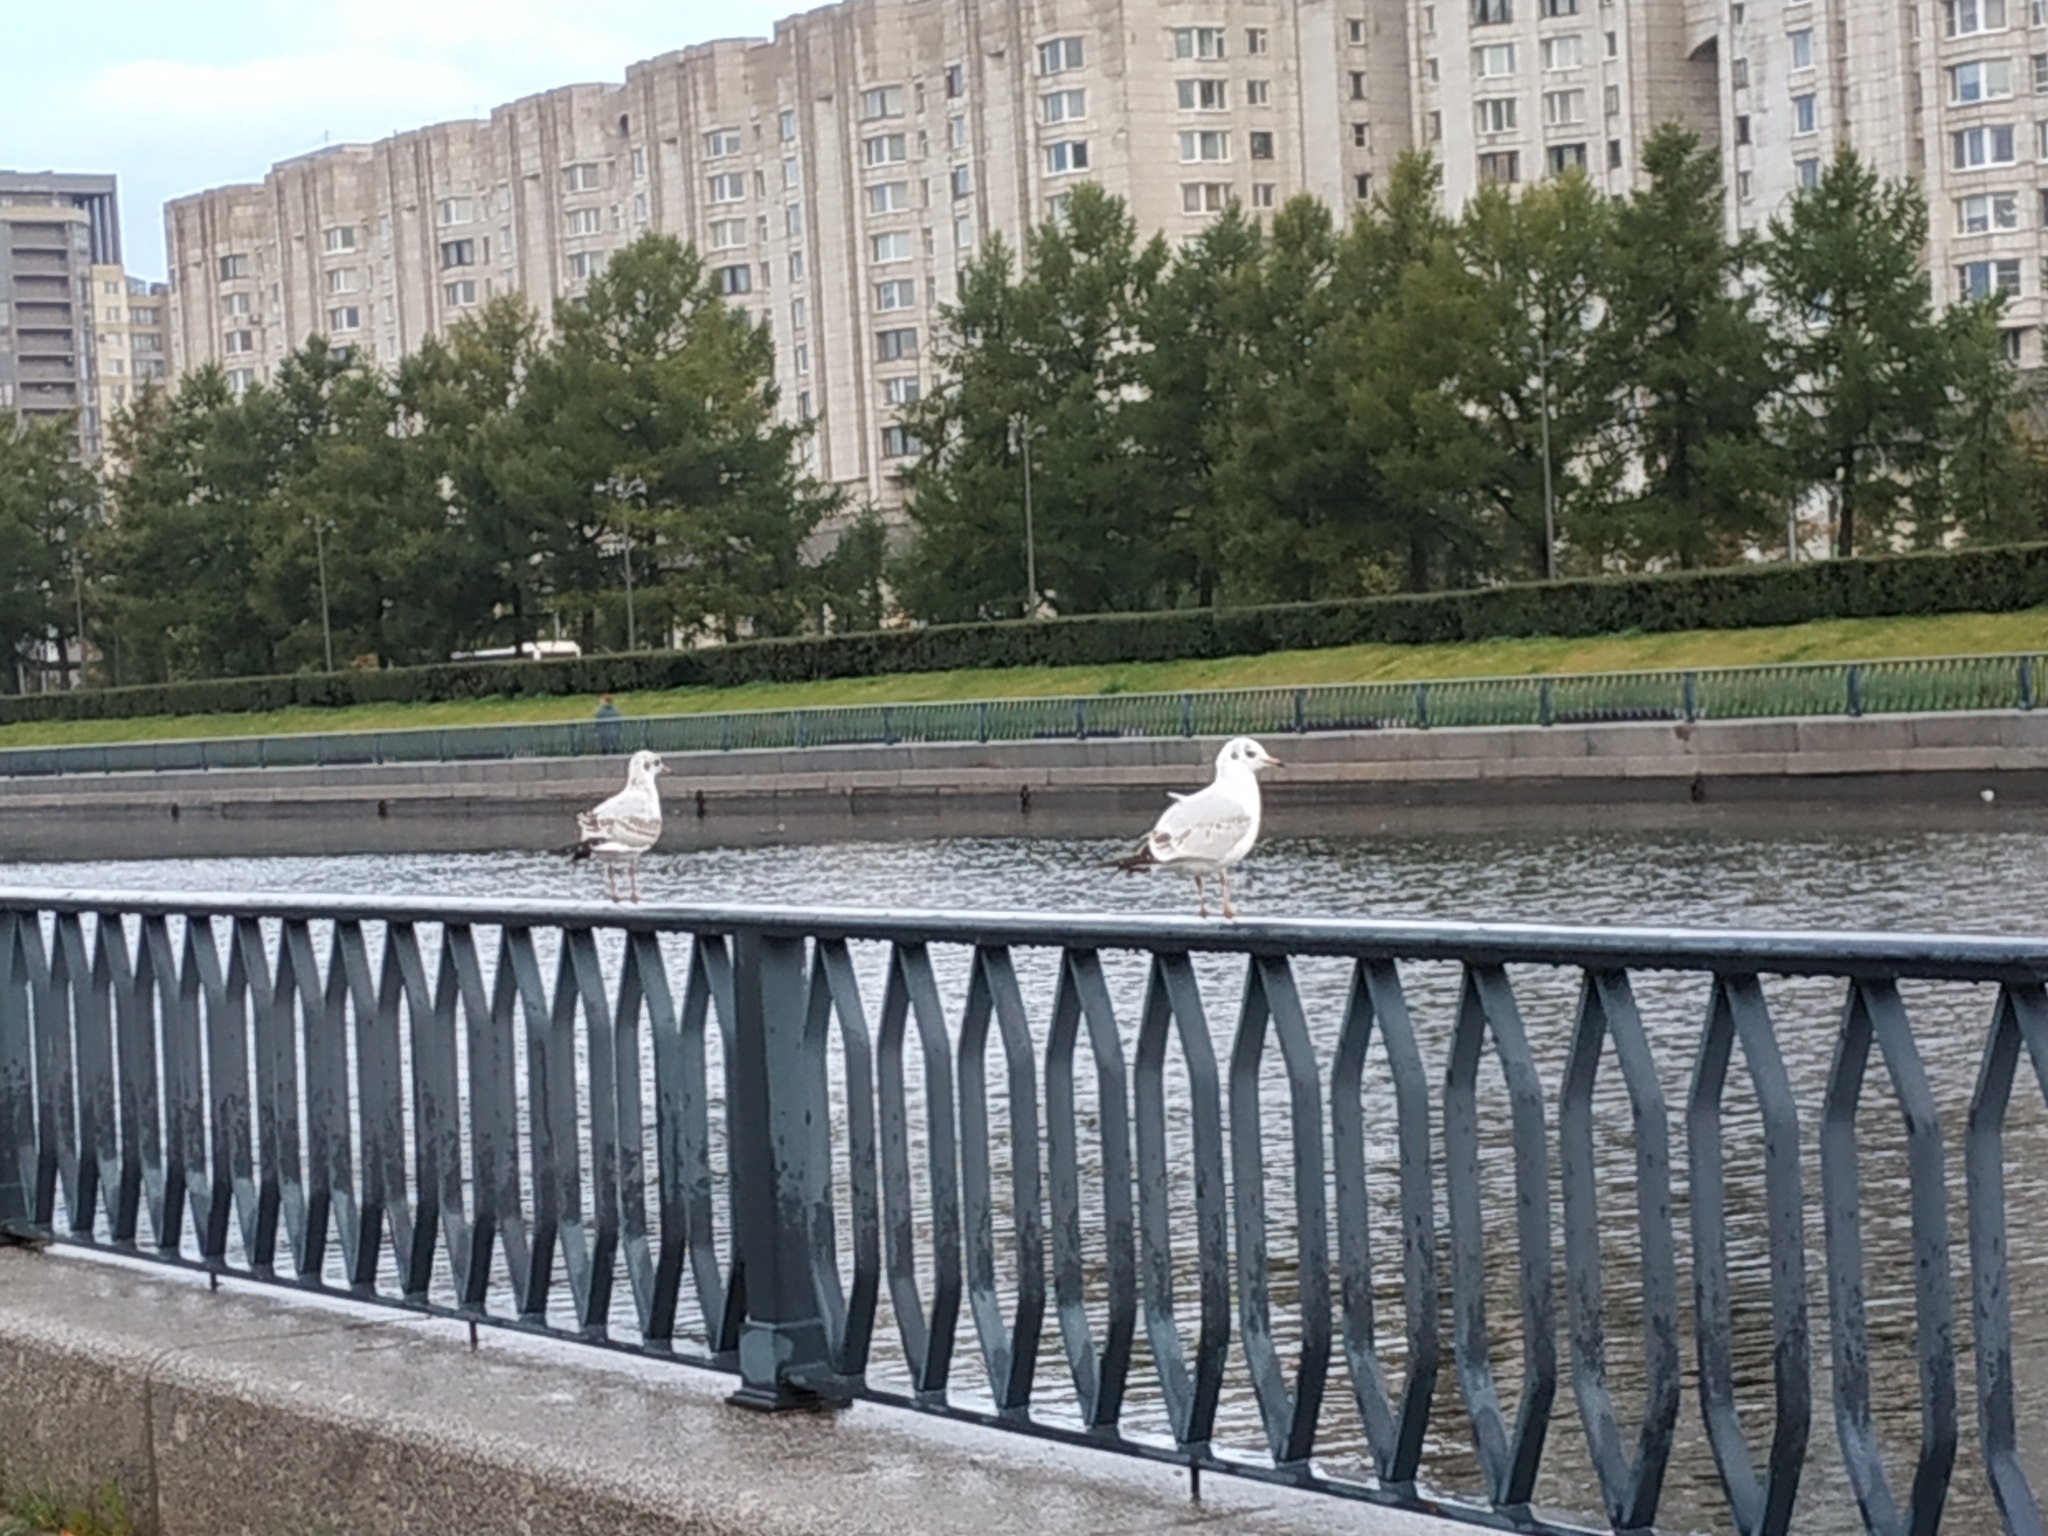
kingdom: Animalia
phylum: Chordata
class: Aves
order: Charadriiformes
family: Laridae
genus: Chroicocephalus
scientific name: Chroicocephalus ridibundus
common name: Black-headed gull
